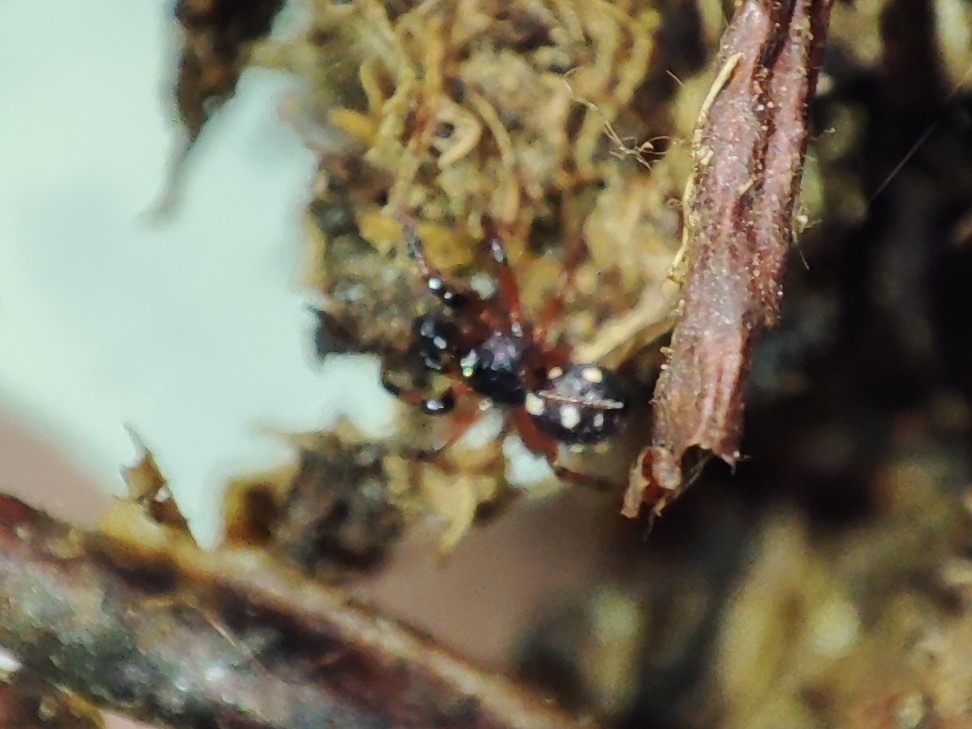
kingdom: Animalia
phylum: Arthropoda
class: Arachnida
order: Araneae
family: Theridiidae
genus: Crustulina
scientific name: Crustulina guttata
